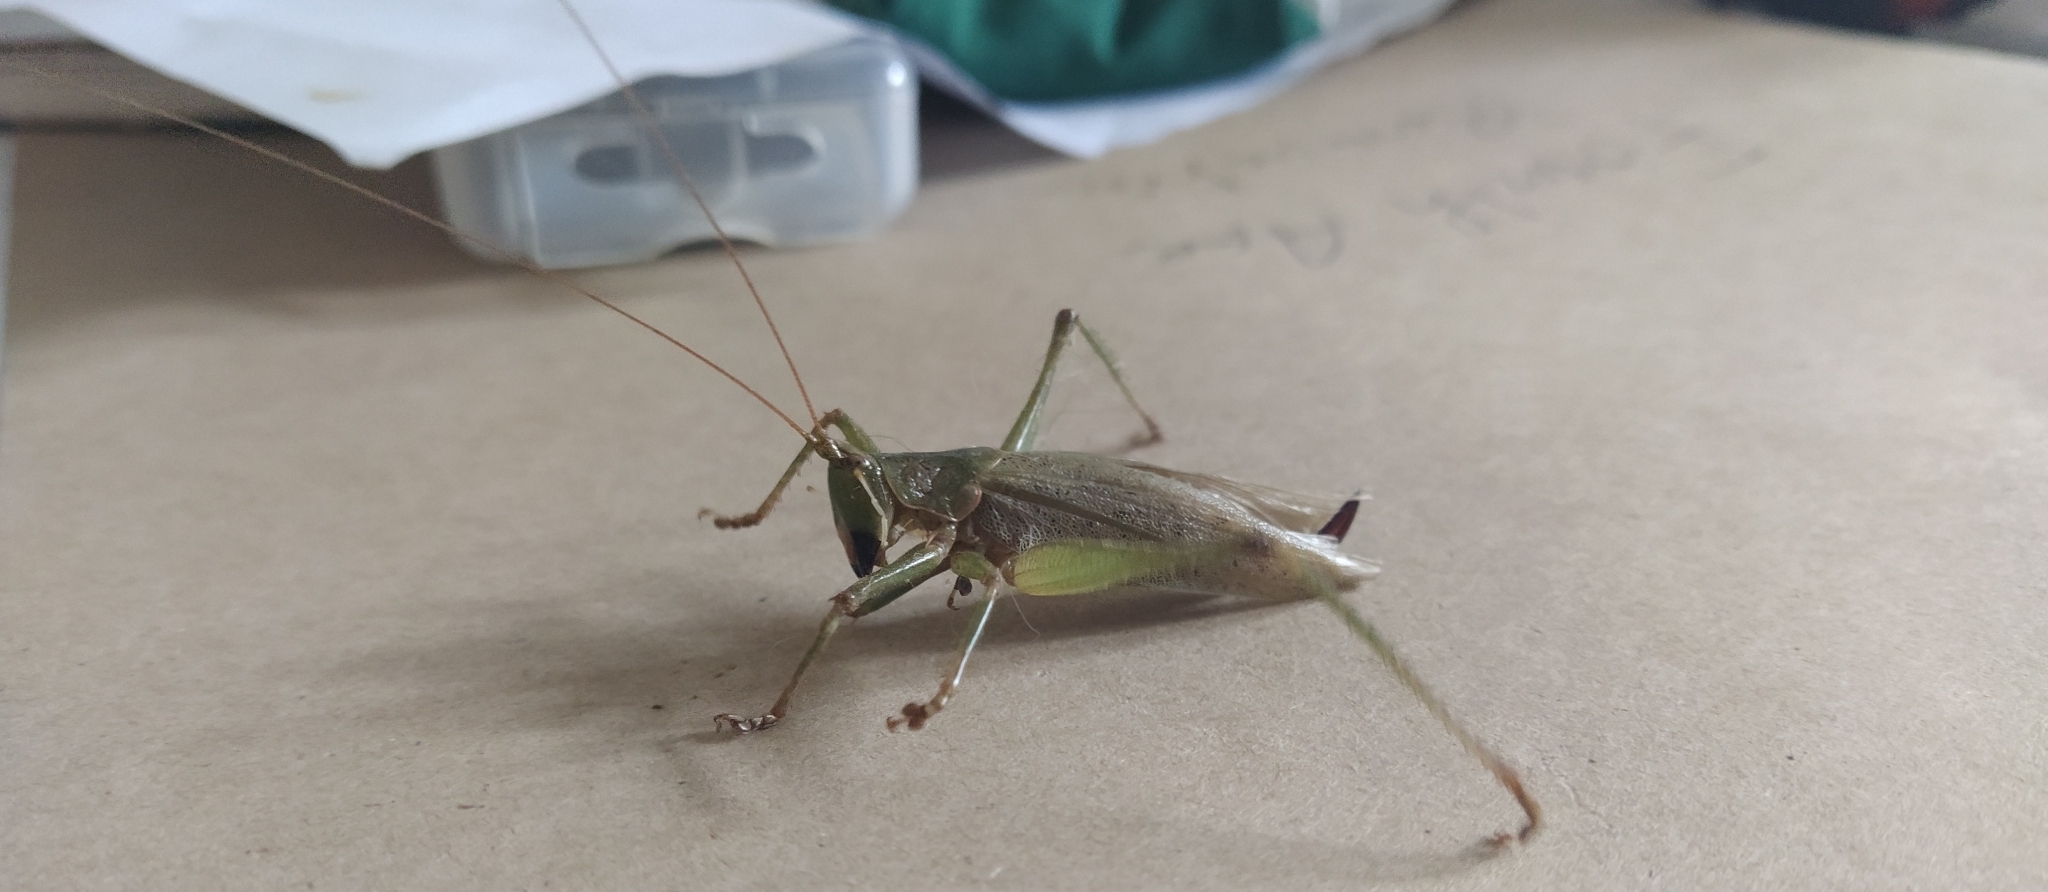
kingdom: Animalia
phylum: Arthropoda
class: Insecta
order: Orthoptera
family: Tettigoniidae
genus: Austrosalomona
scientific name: Austrosalomona falcata
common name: Olive-green coastal katydid
